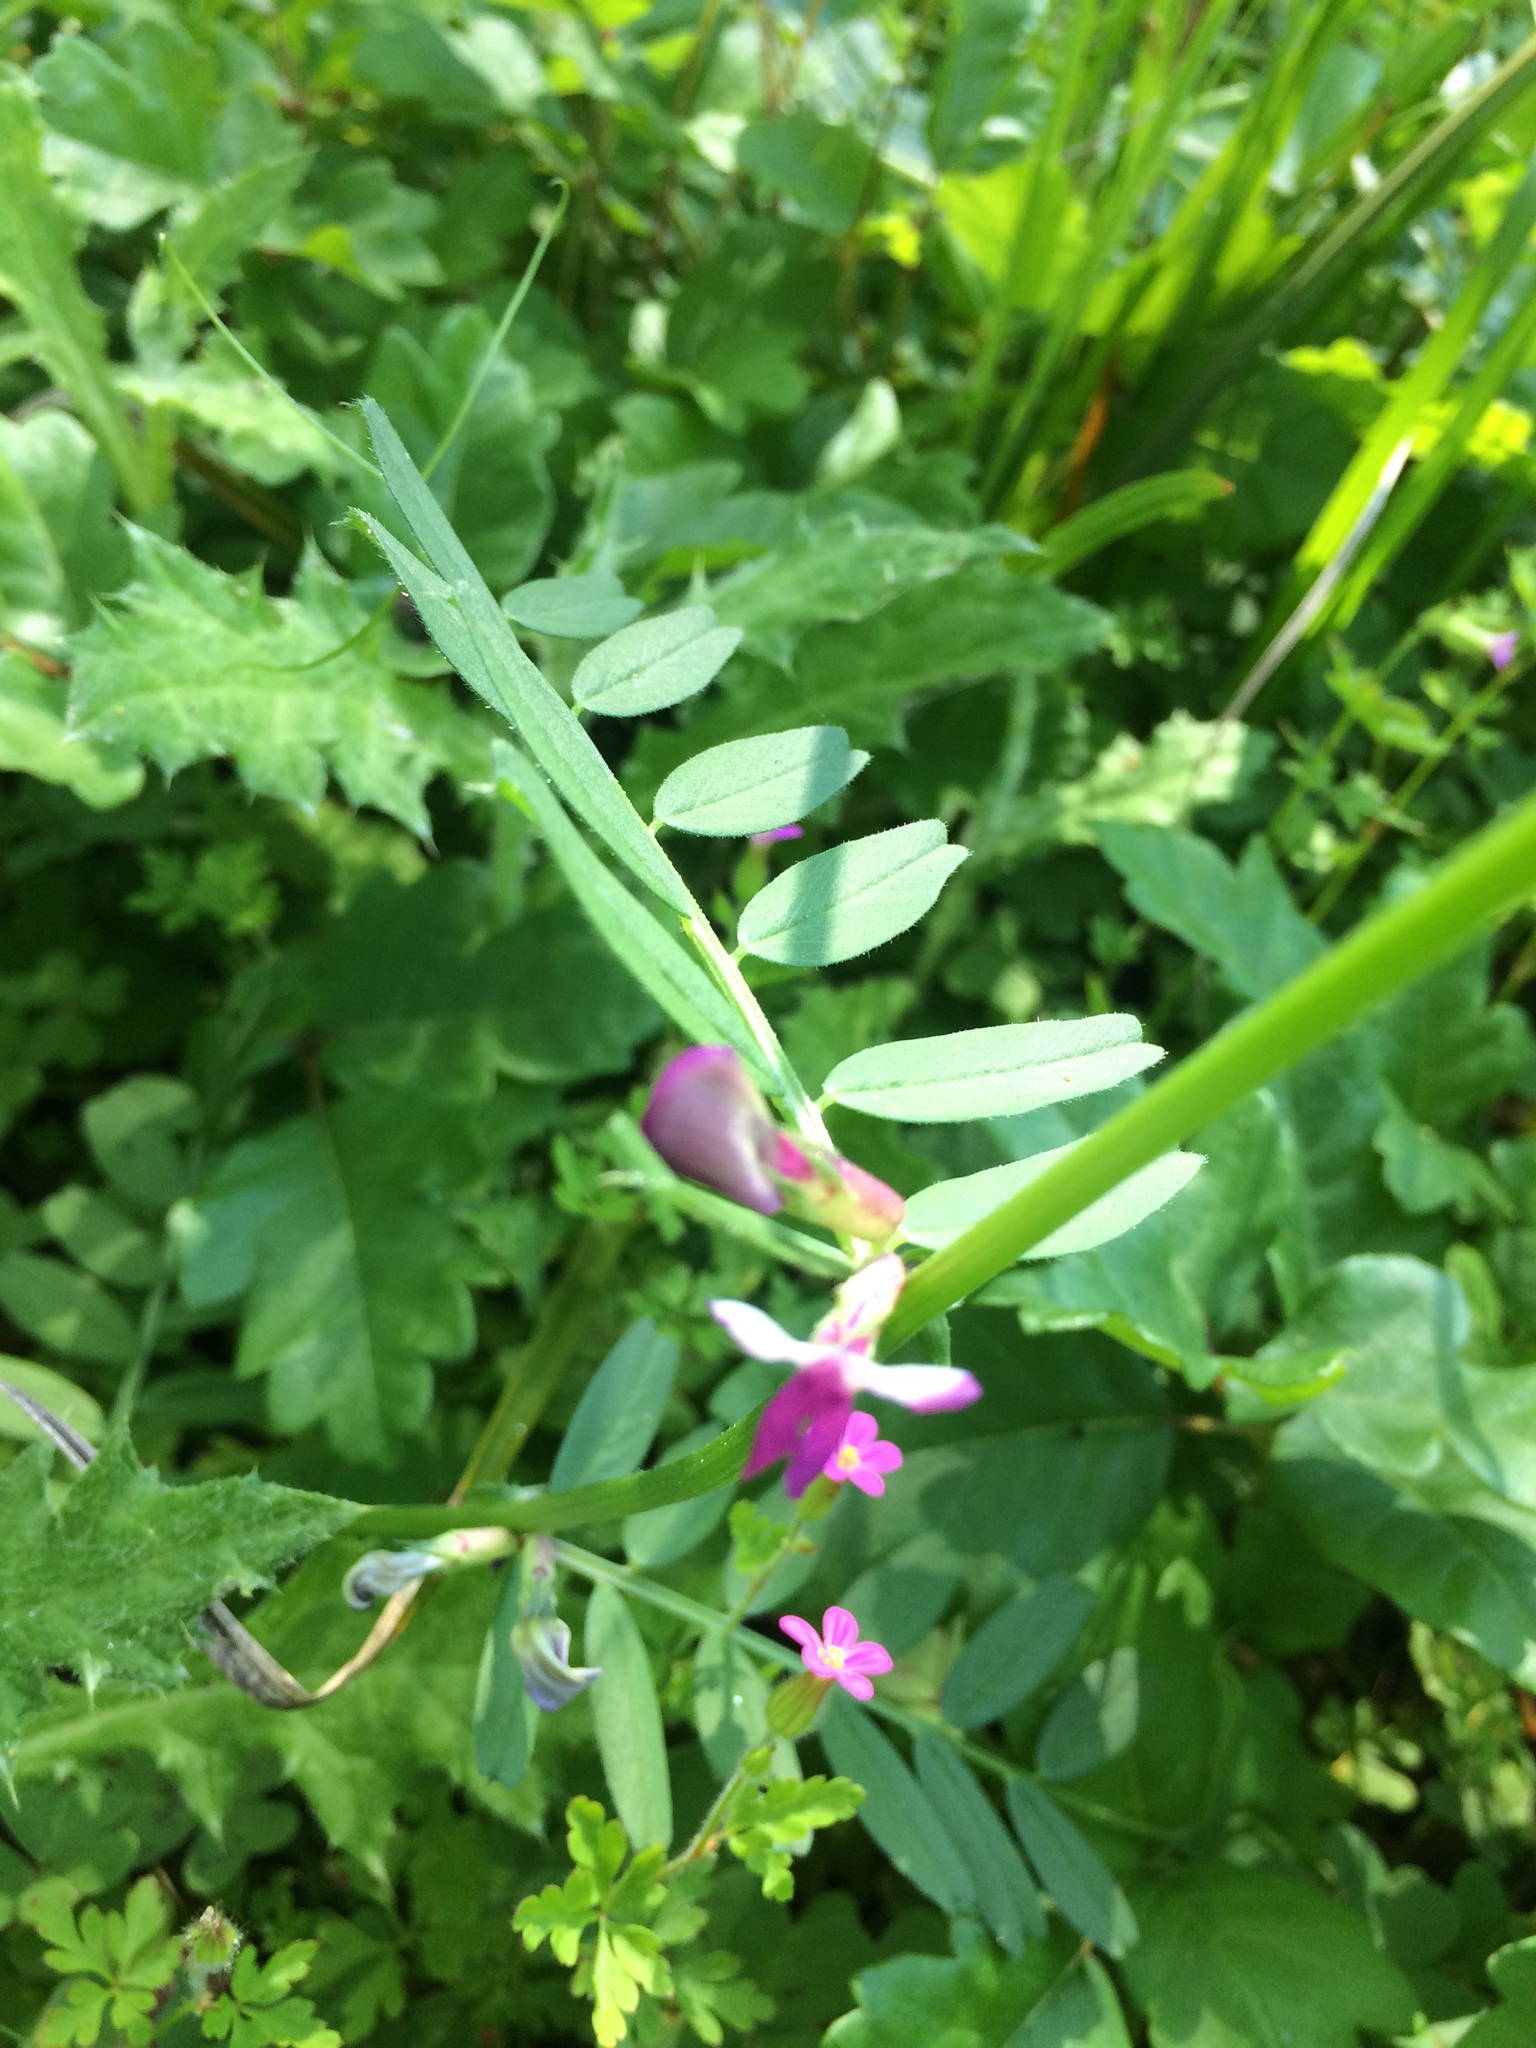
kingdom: Plantae
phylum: Tracheophyta
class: Magnoliopsida
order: Fabales
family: Fabaceae
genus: Vicia
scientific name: Vicia sativa
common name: Garden vetch
